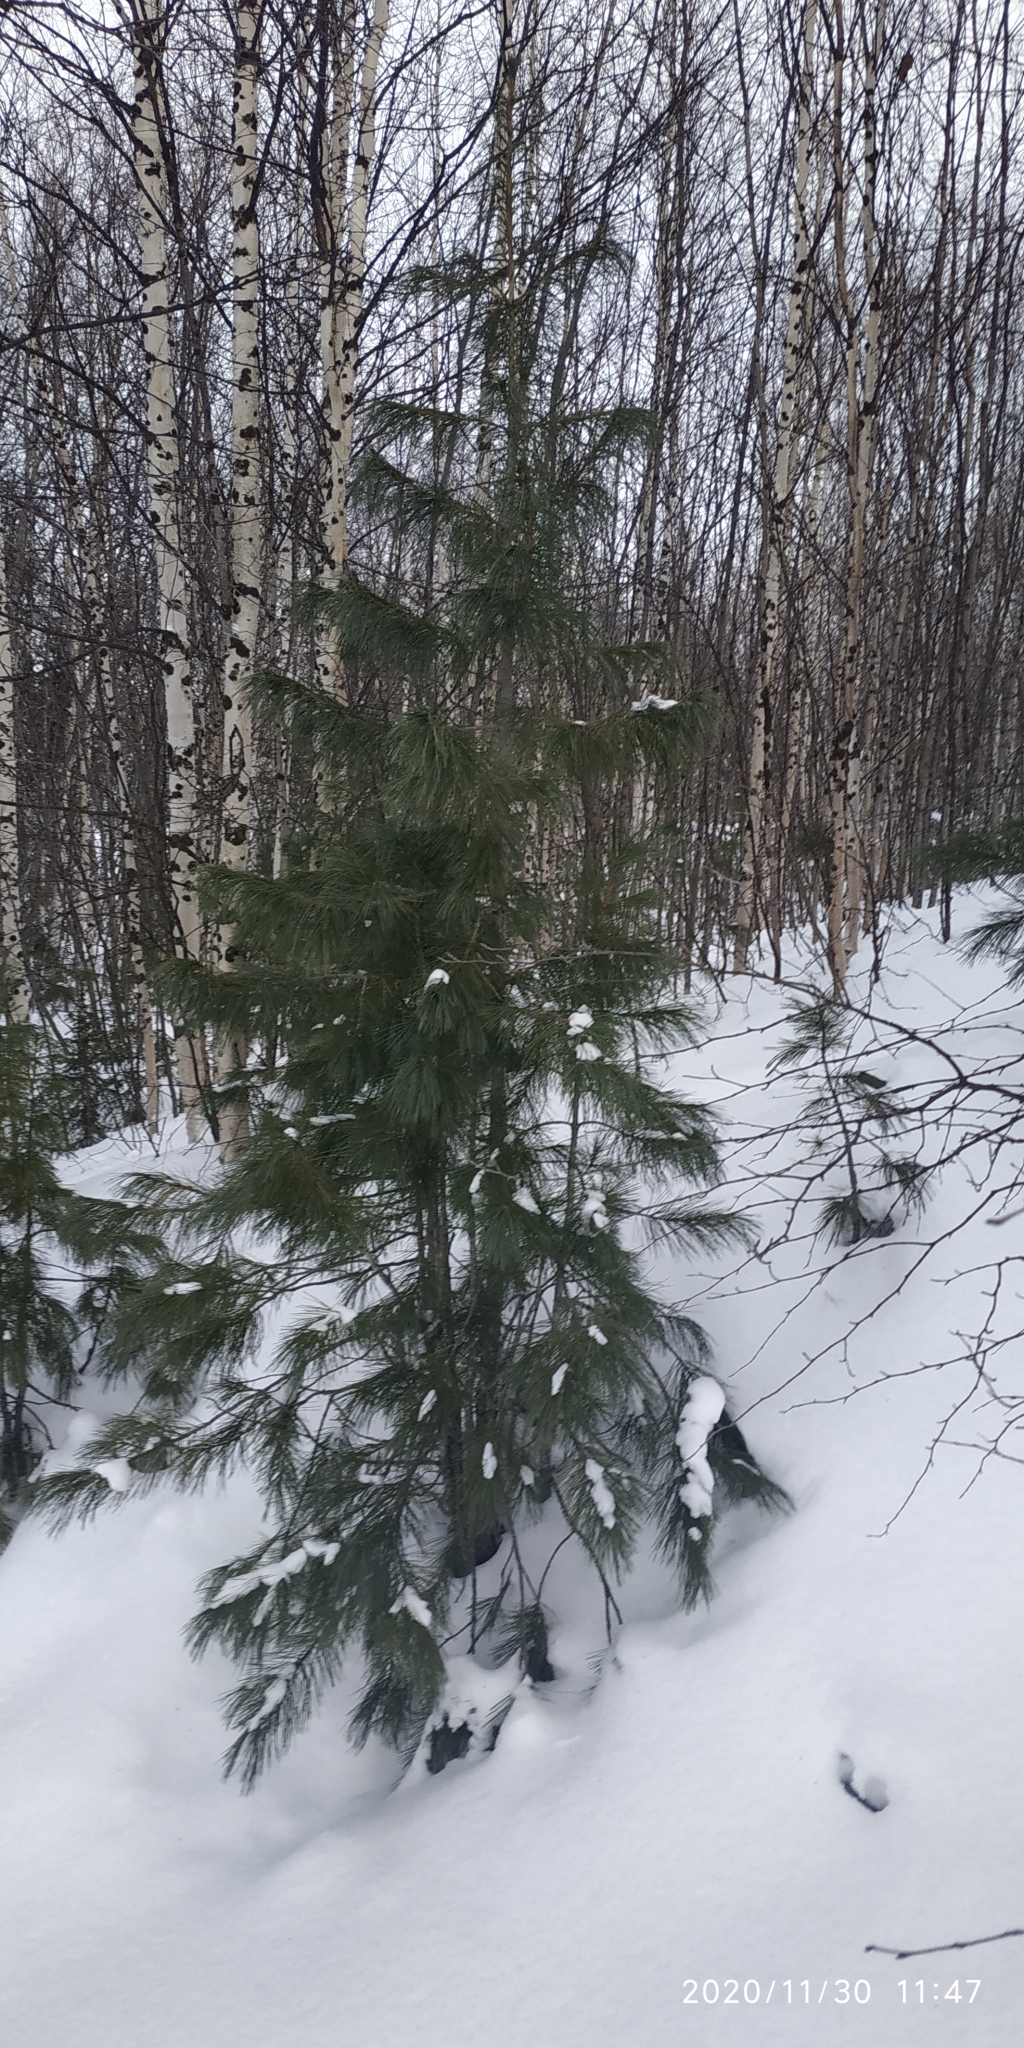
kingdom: Plantae
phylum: Tracheophyta
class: Pinopsida
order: Pinales
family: Pinaceae
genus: Pinus
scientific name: Pinus sibirica
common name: Siberian pine
